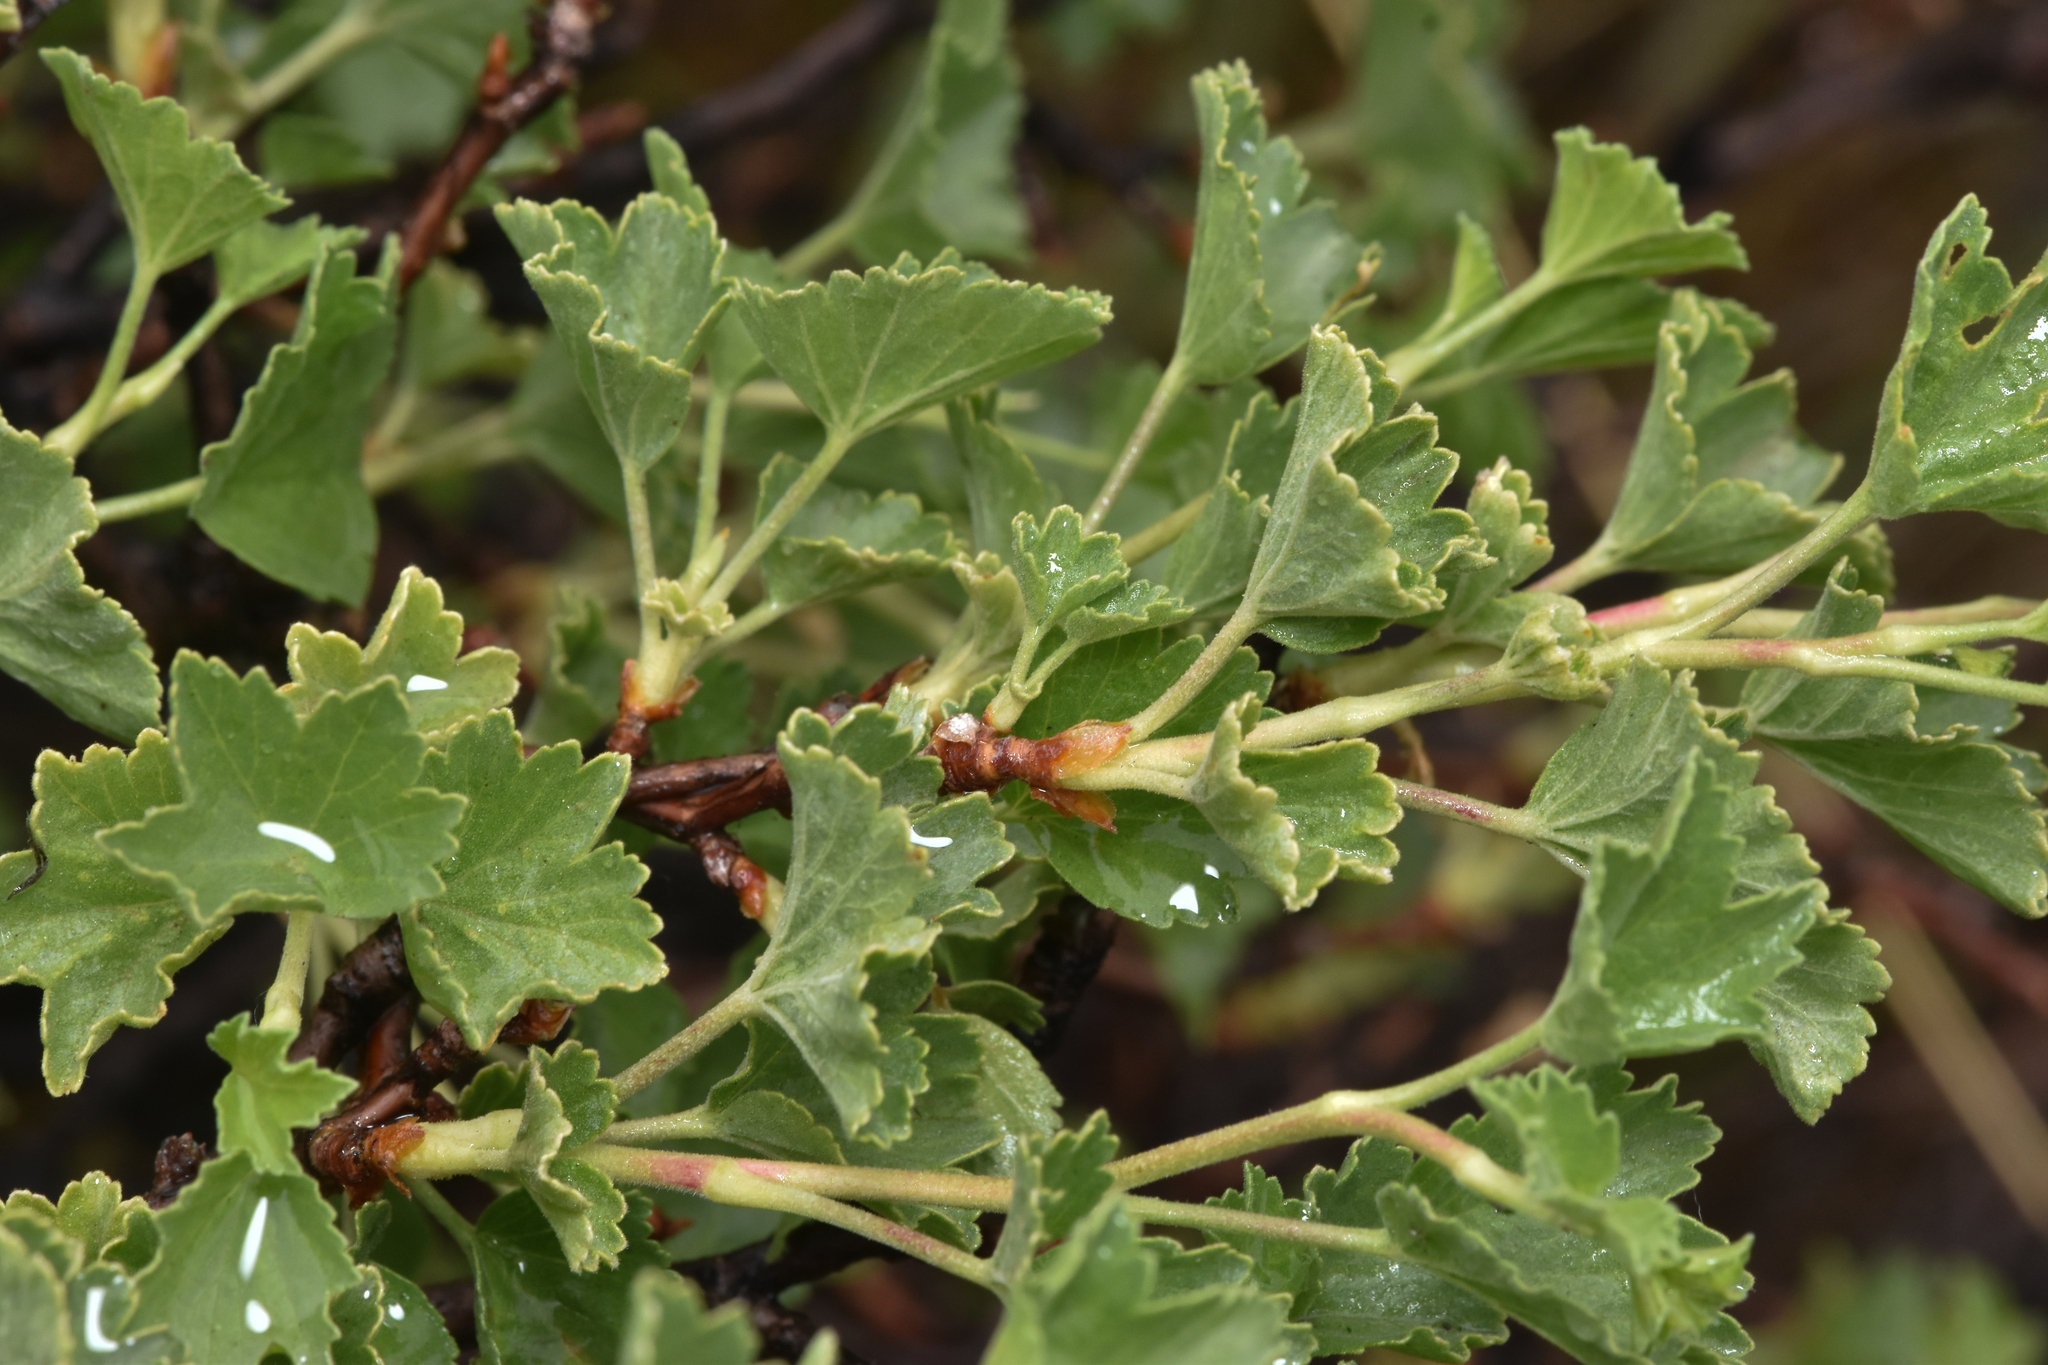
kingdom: Plantae
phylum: Tracheophyta
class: Magnoliopsida
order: Saxifragales
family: Grossulariaceae
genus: Ribes
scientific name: Ribes cereum
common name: Wax currant
